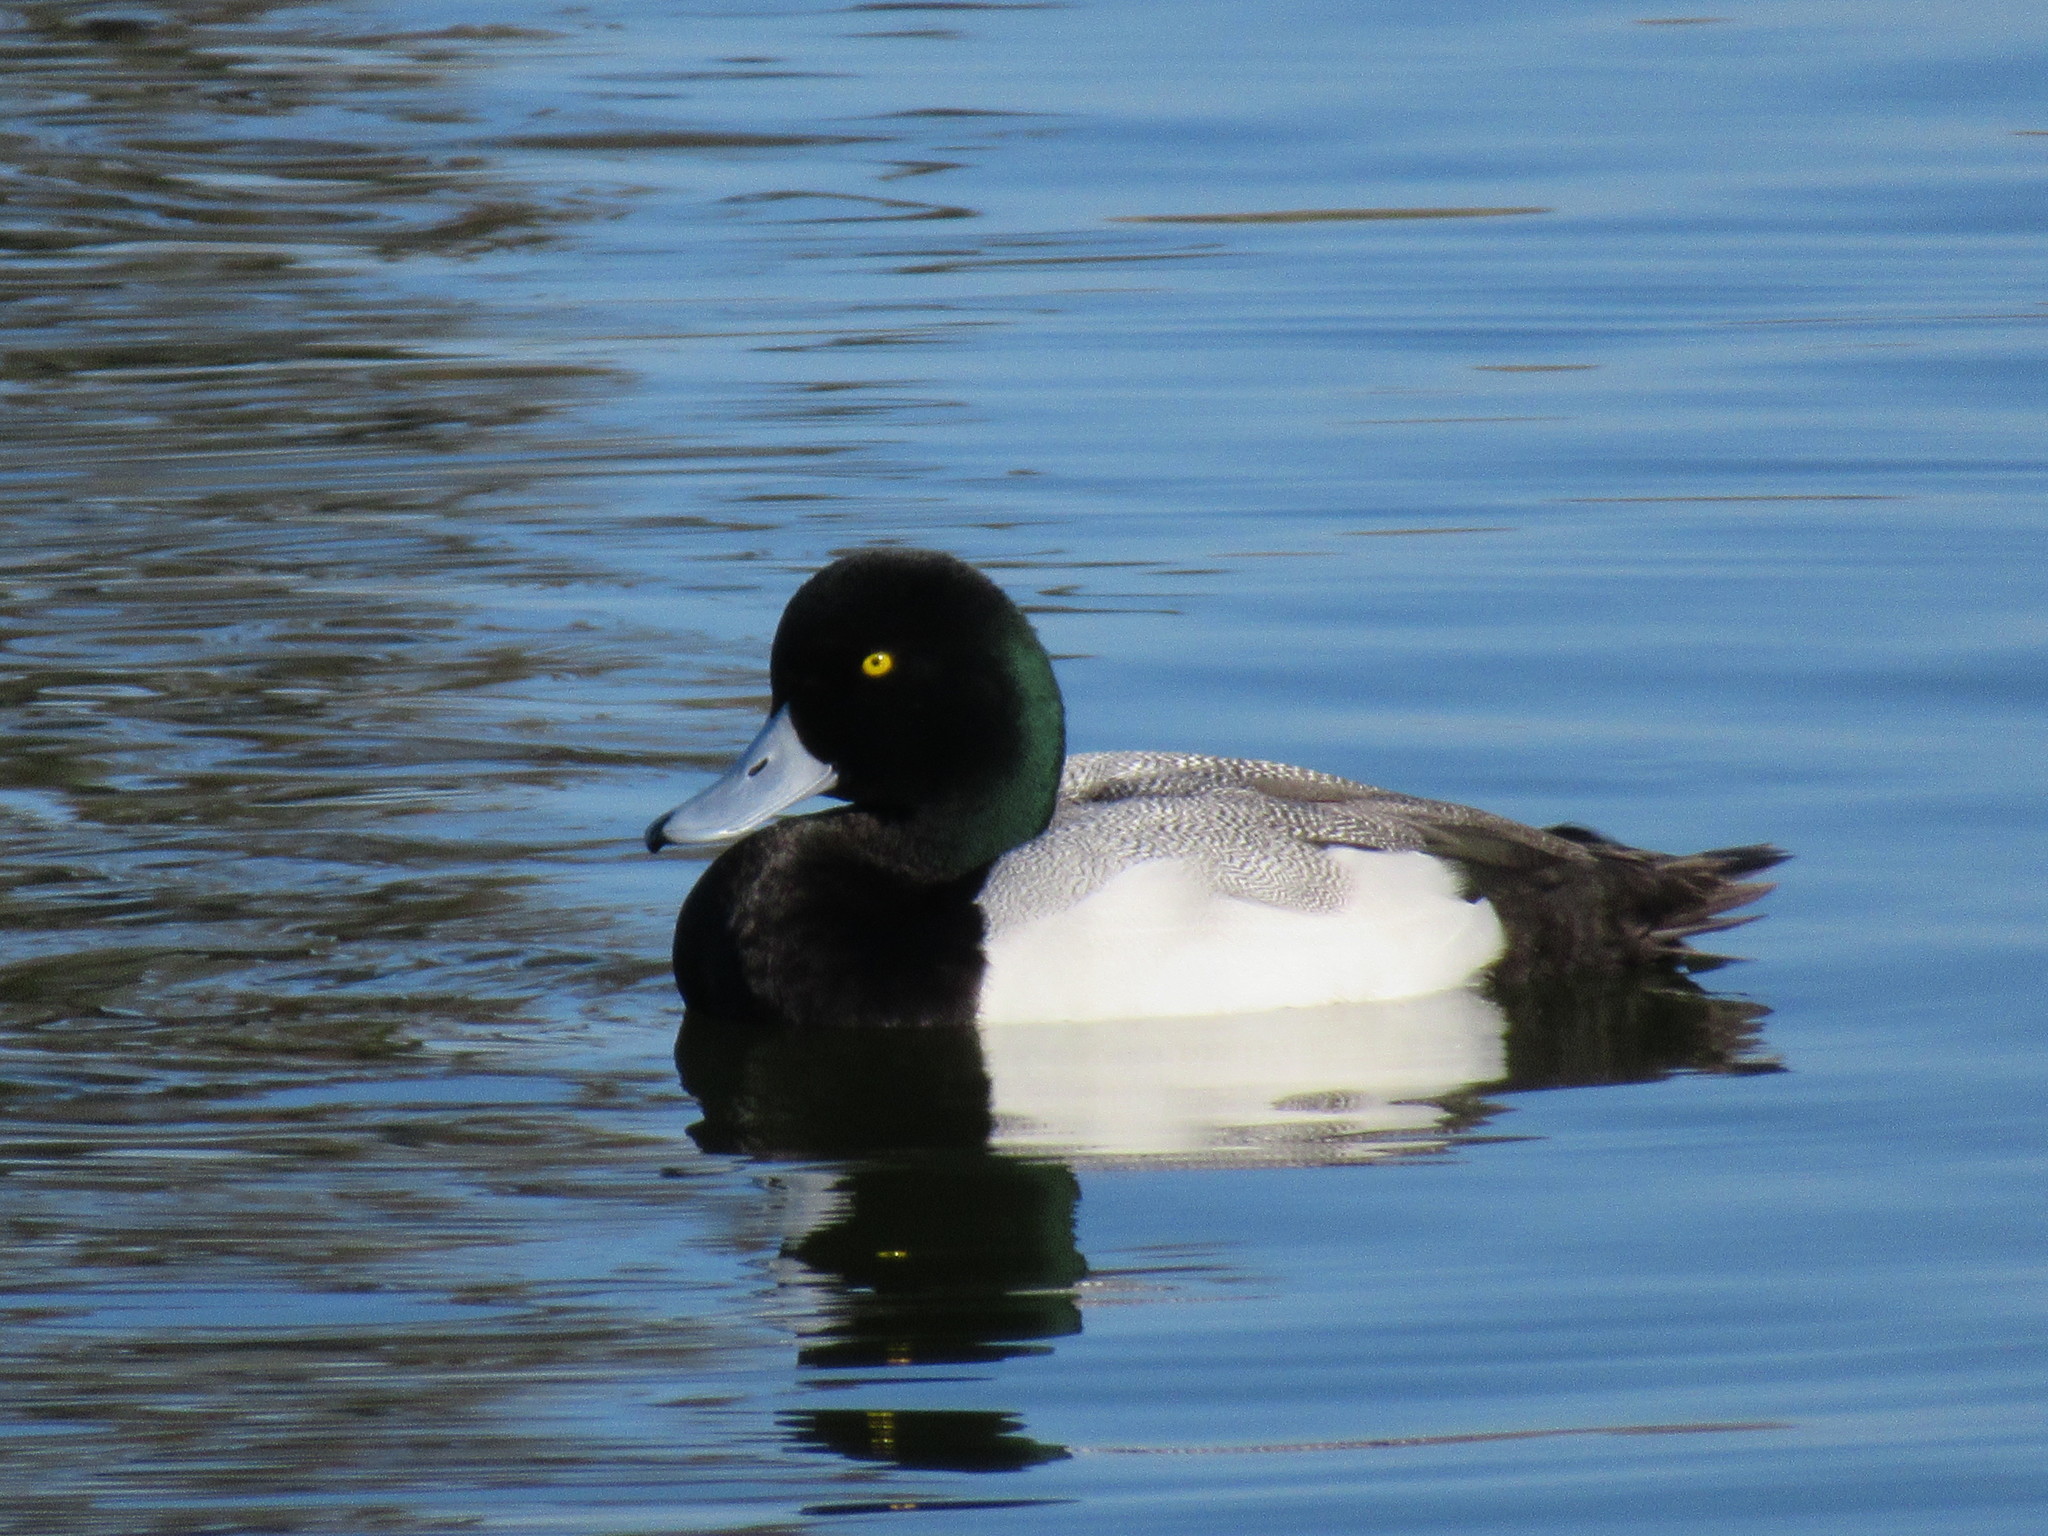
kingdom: Animalia
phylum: Chordata
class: Aves
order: Anseriformes
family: Anatidae
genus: Aythya
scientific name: Aythya marila
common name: Greater scaup
